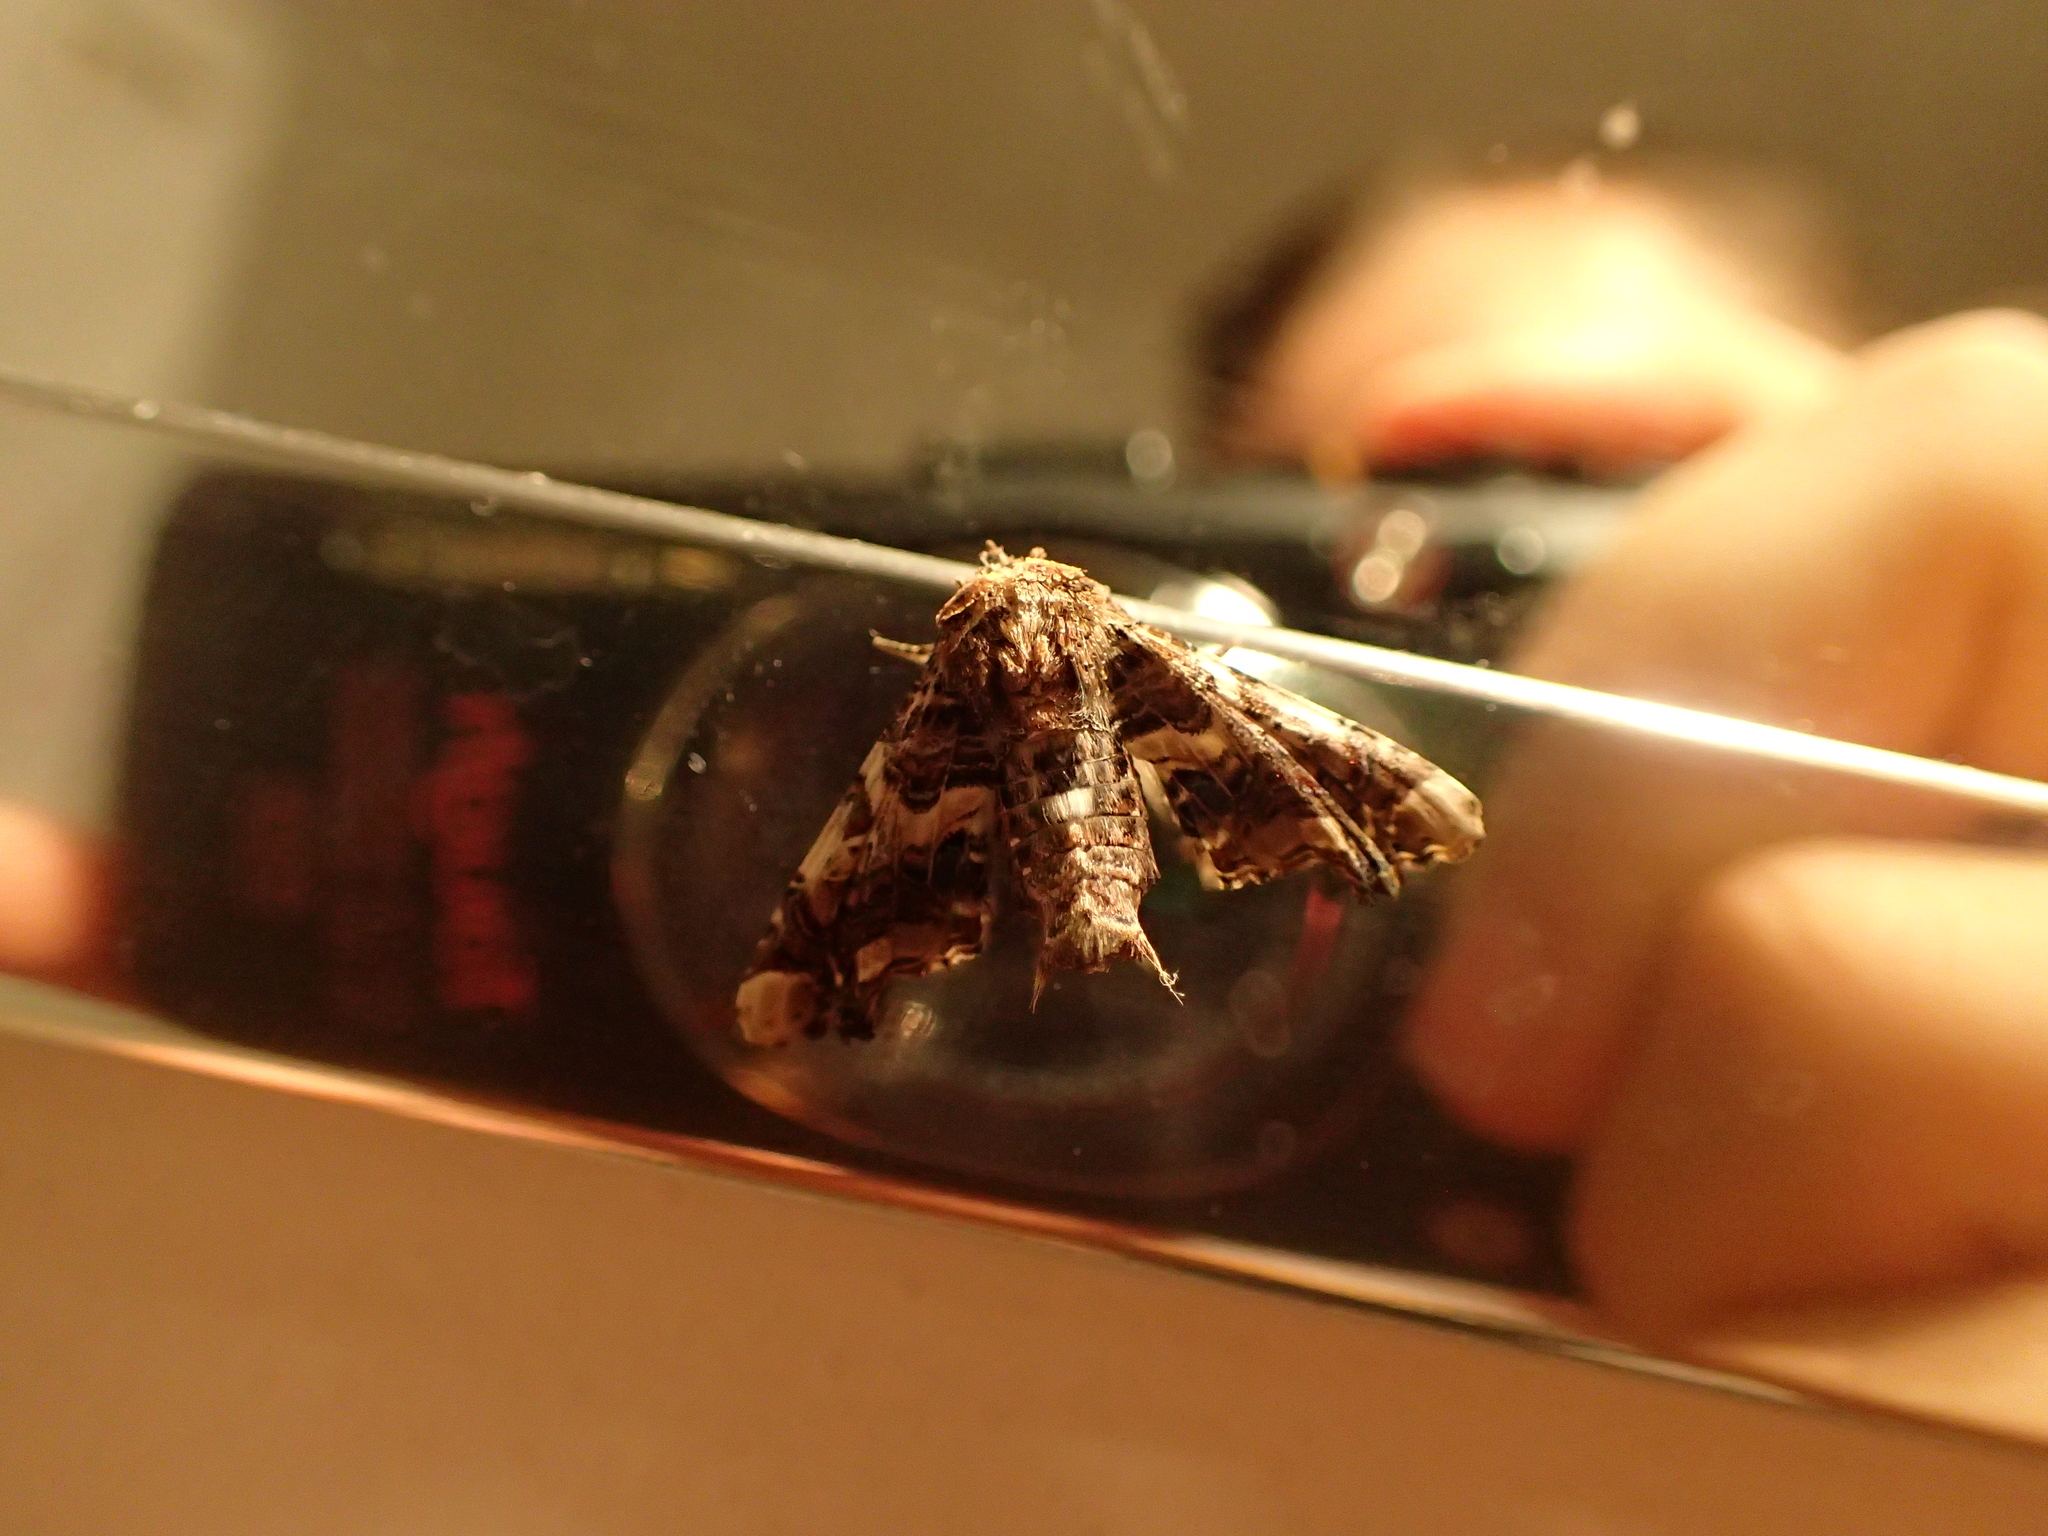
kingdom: Animalia
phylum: Arthropoda
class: Insecta
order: Lepidoptera
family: Euteliidae
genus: Eutelia
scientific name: Eutelia adulatrix
